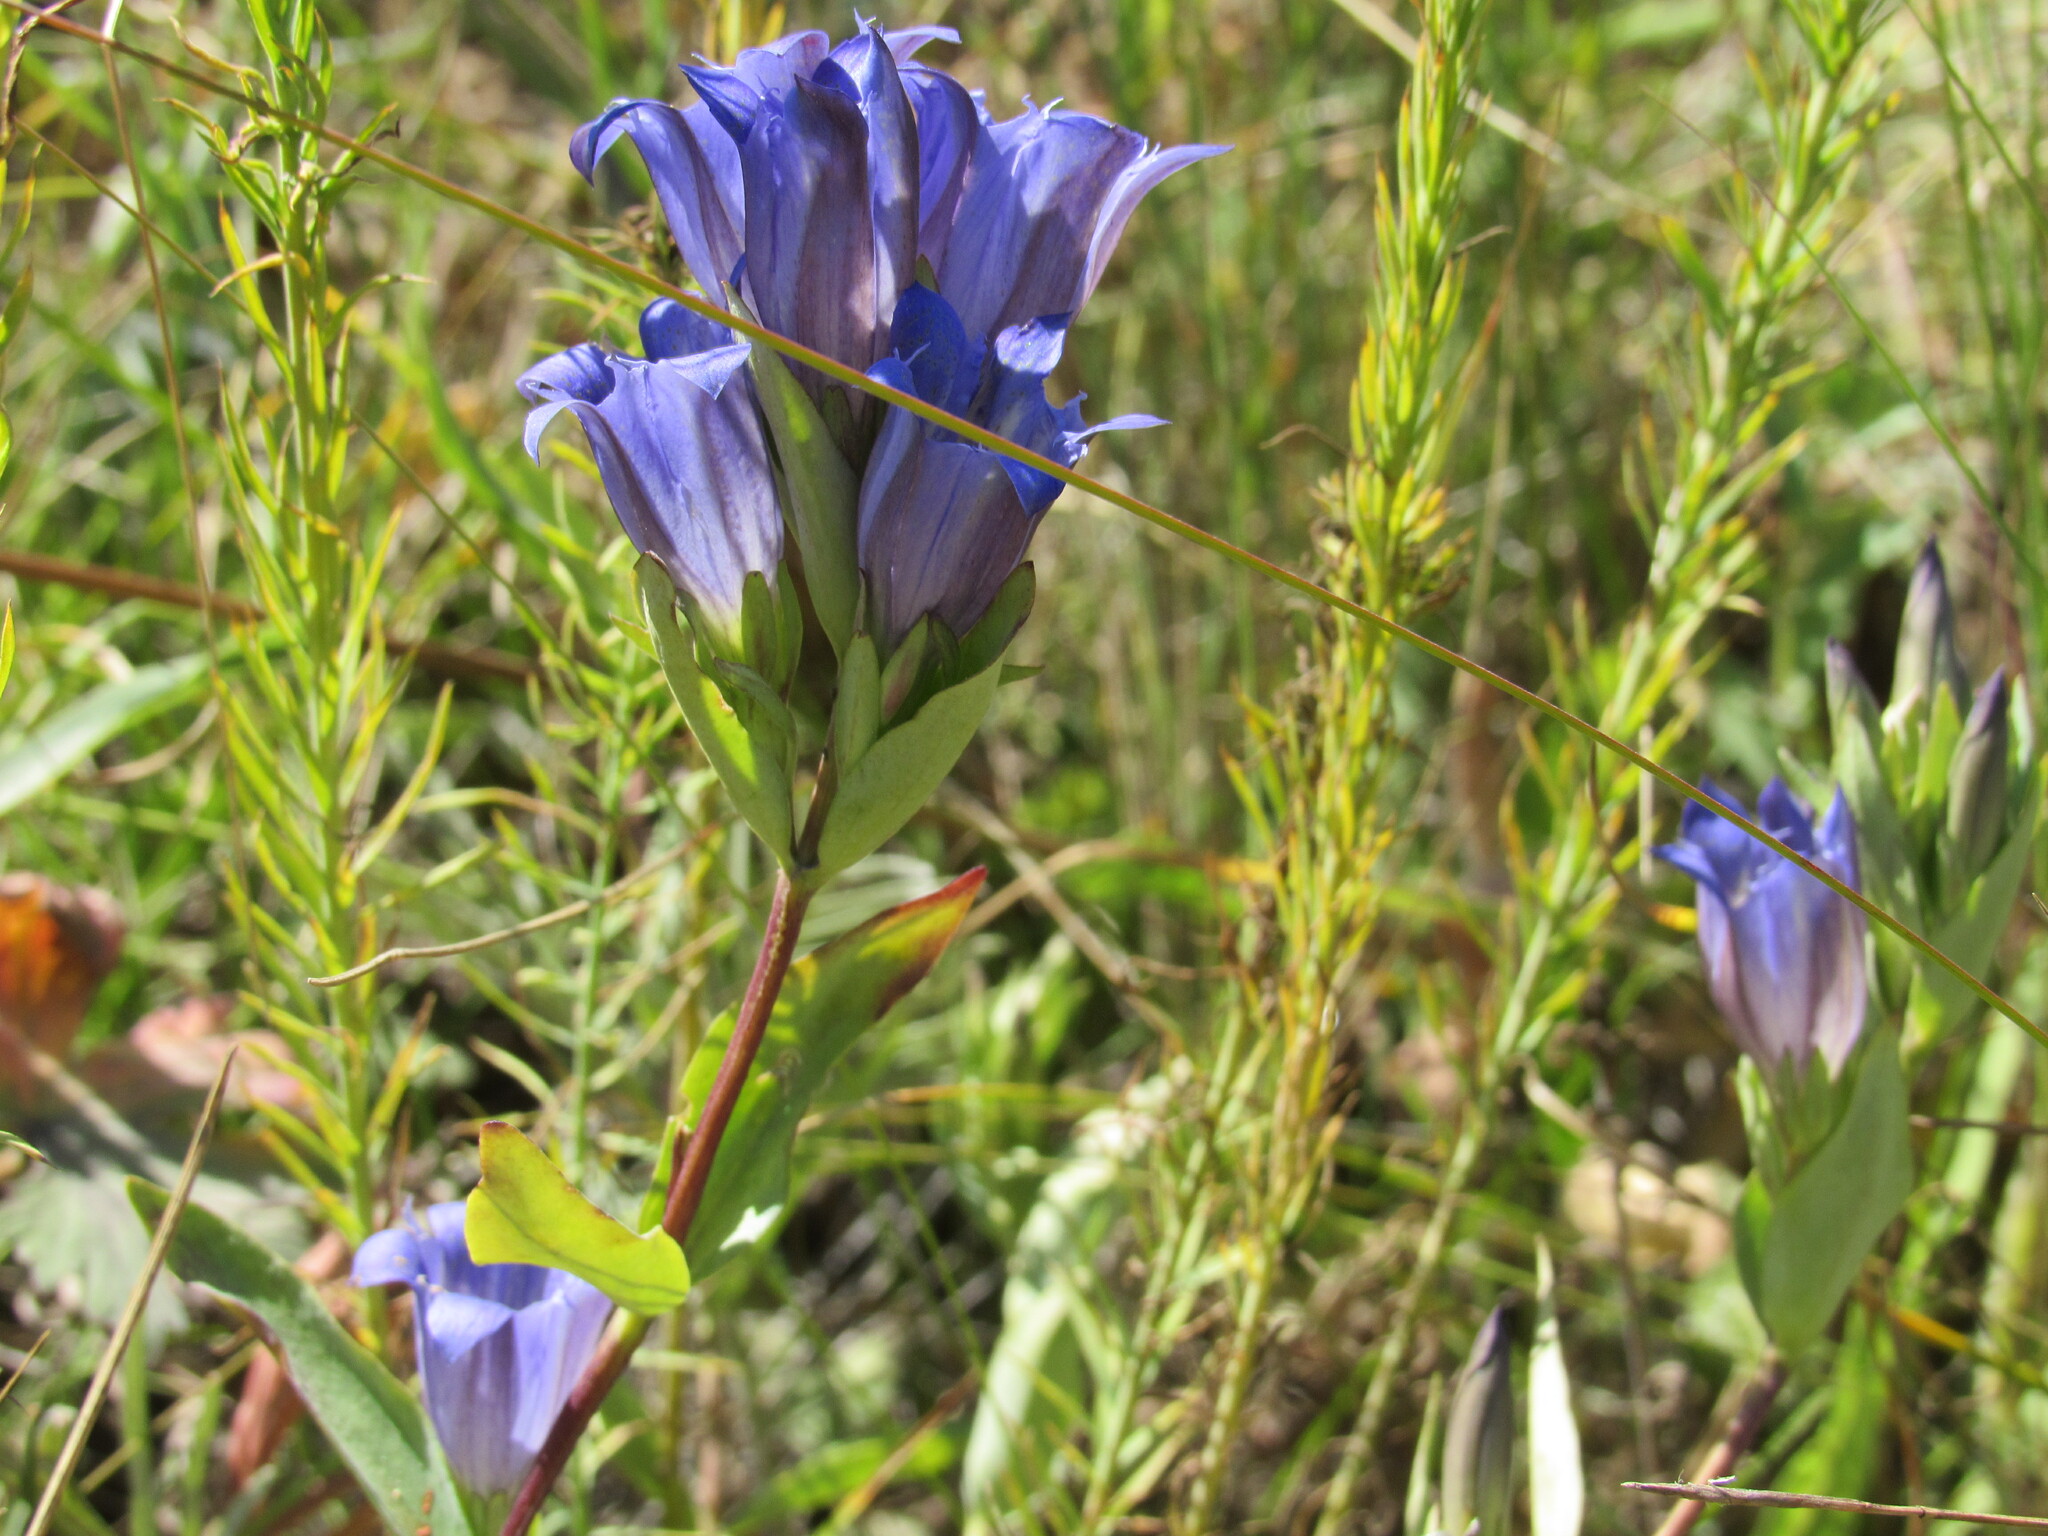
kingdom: Plantae
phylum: Tracheophyta
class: Magnoliopsida
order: Gentianales
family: Gentianaceae
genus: Gentiana
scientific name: Gentiana affinis
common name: Rocky mountain gentian
